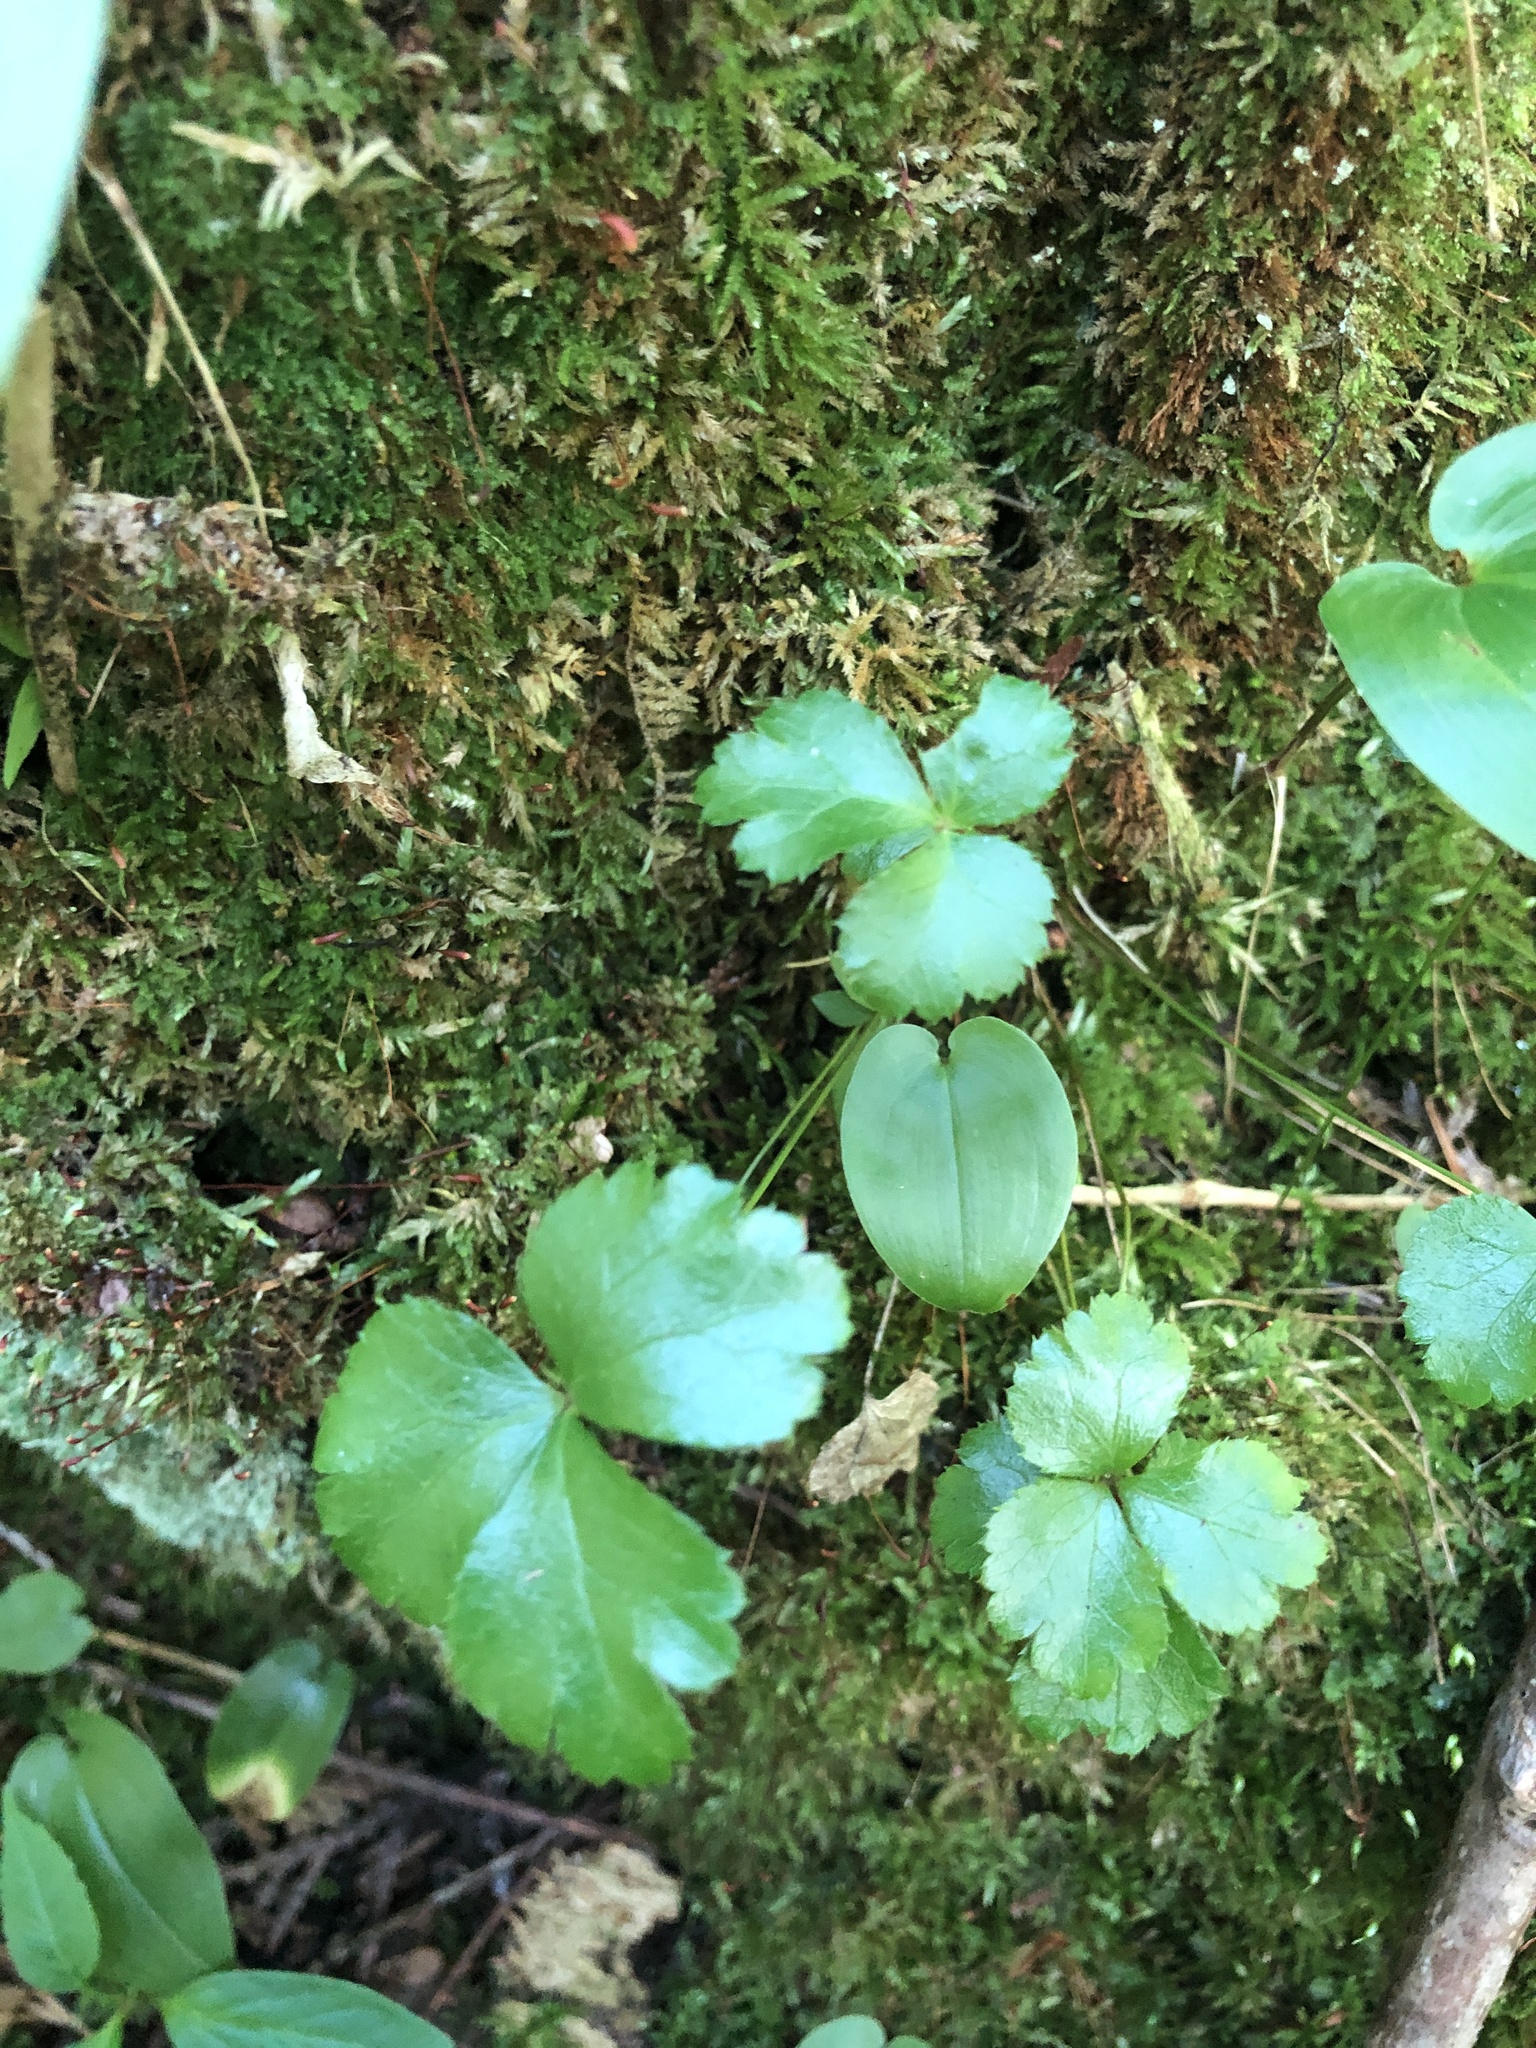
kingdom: Plantae
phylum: Tracheophyta
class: Magnoliopsida
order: Ranunculales
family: Ranunculaceae
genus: Coptis
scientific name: Coptis trifolia
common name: Canker-root
